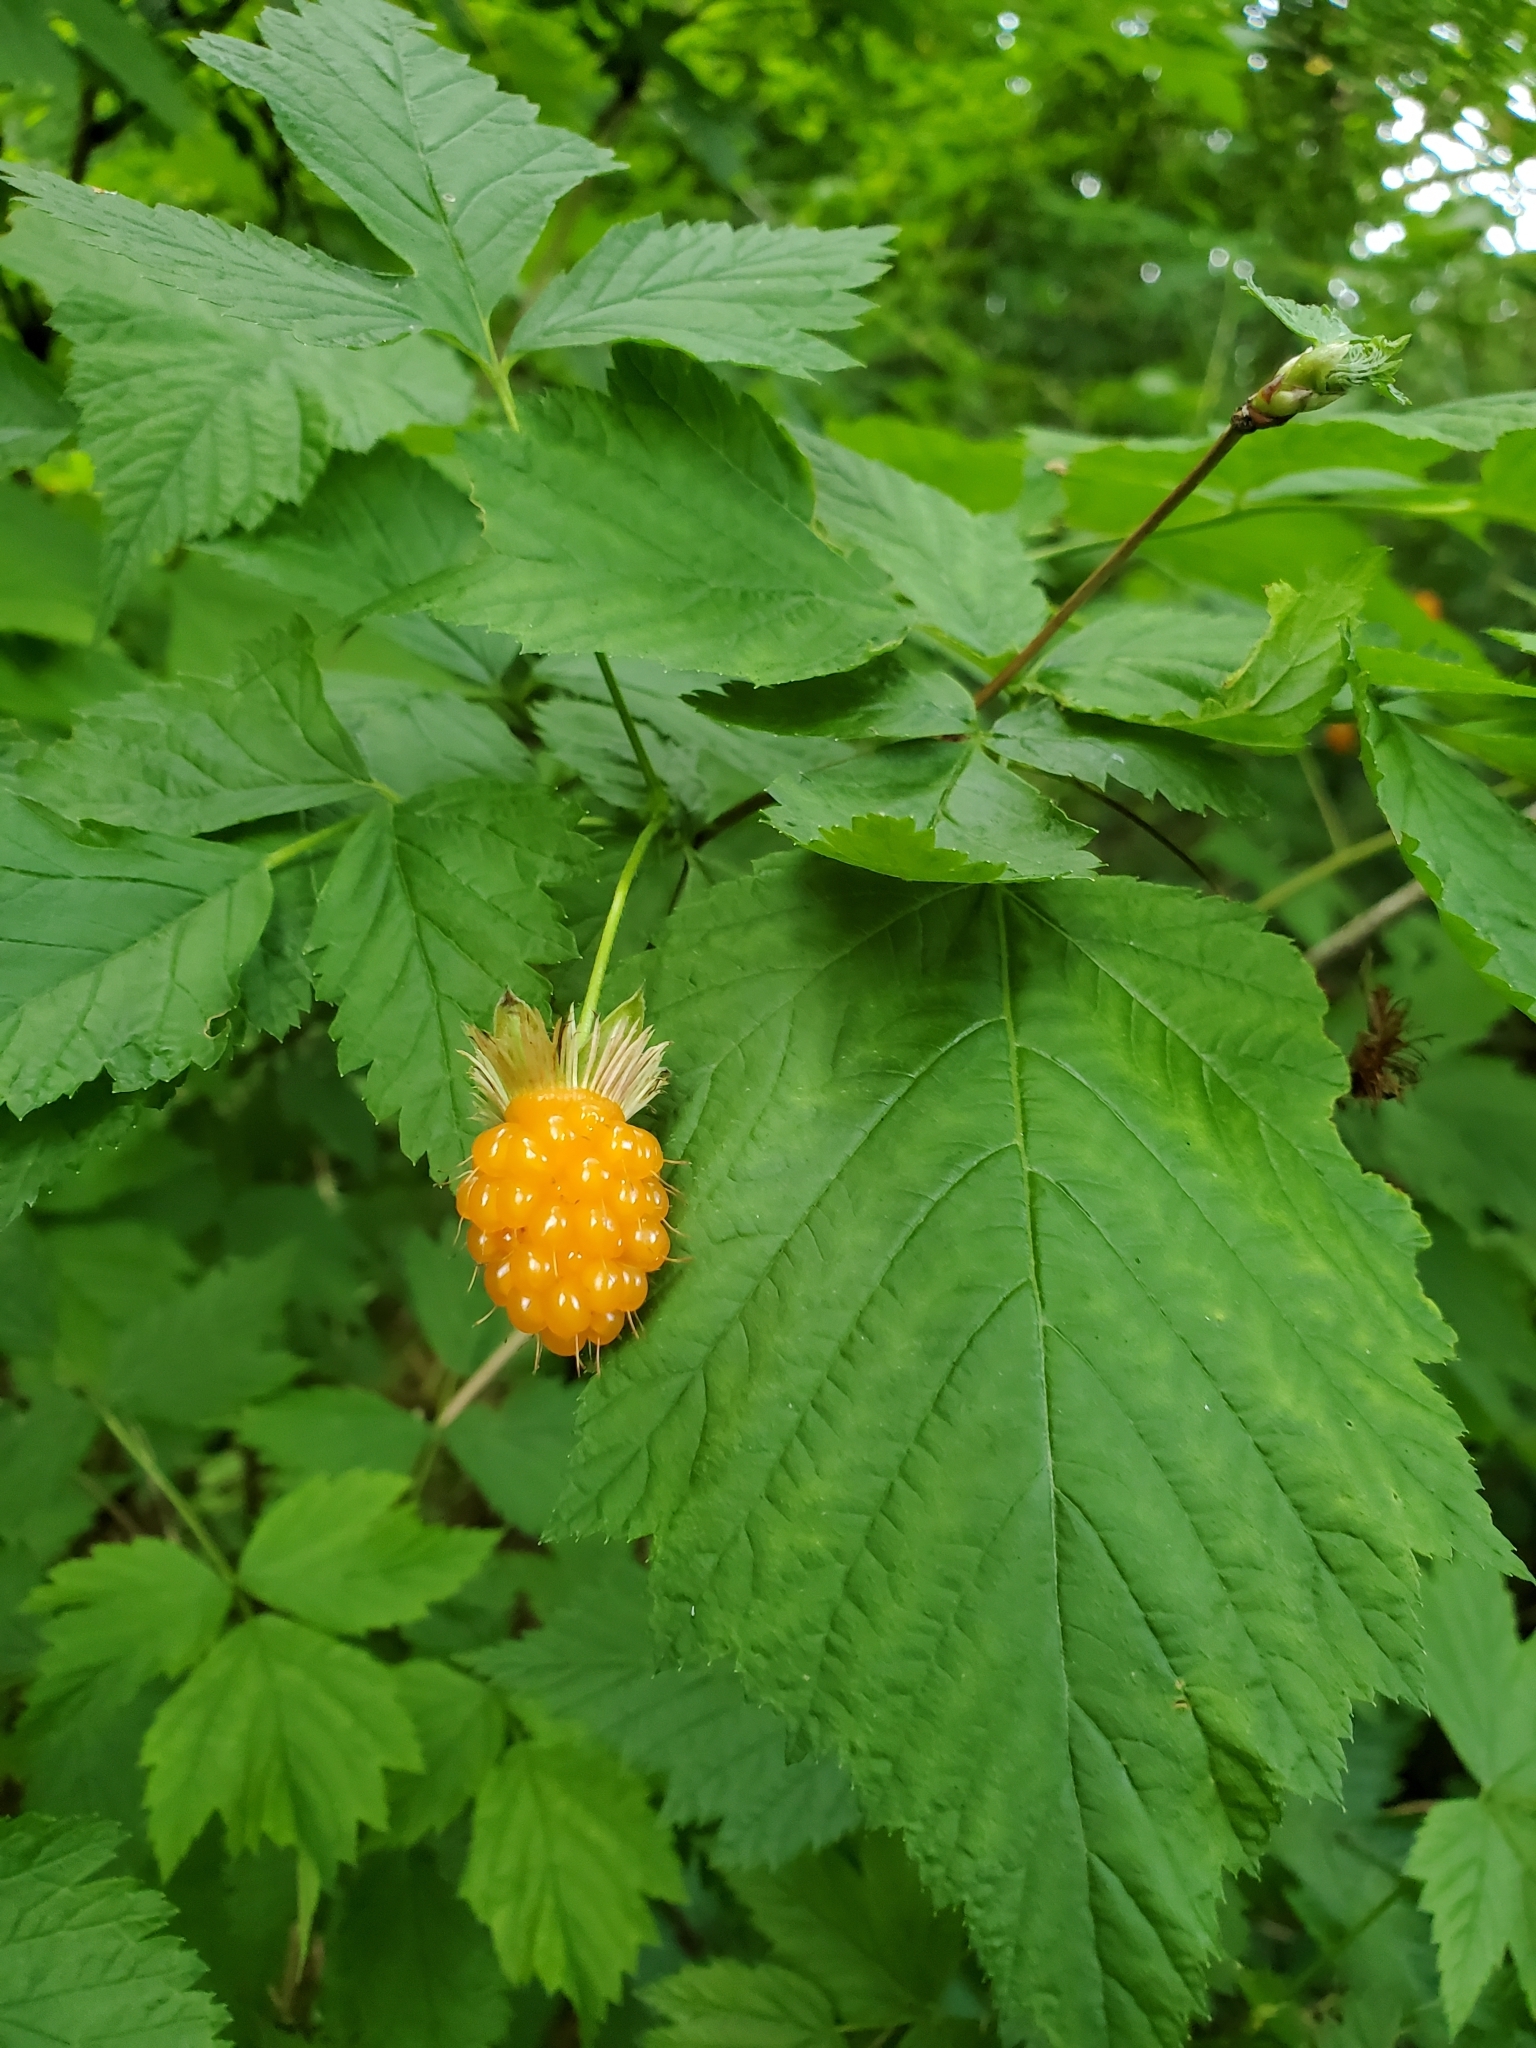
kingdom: Plantae
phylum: Tracheophyta
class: Magnoliopsida
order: Rosales
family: Rosaceae
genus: Rubus
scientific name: Rubus spectabilis
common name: Salmonberry
